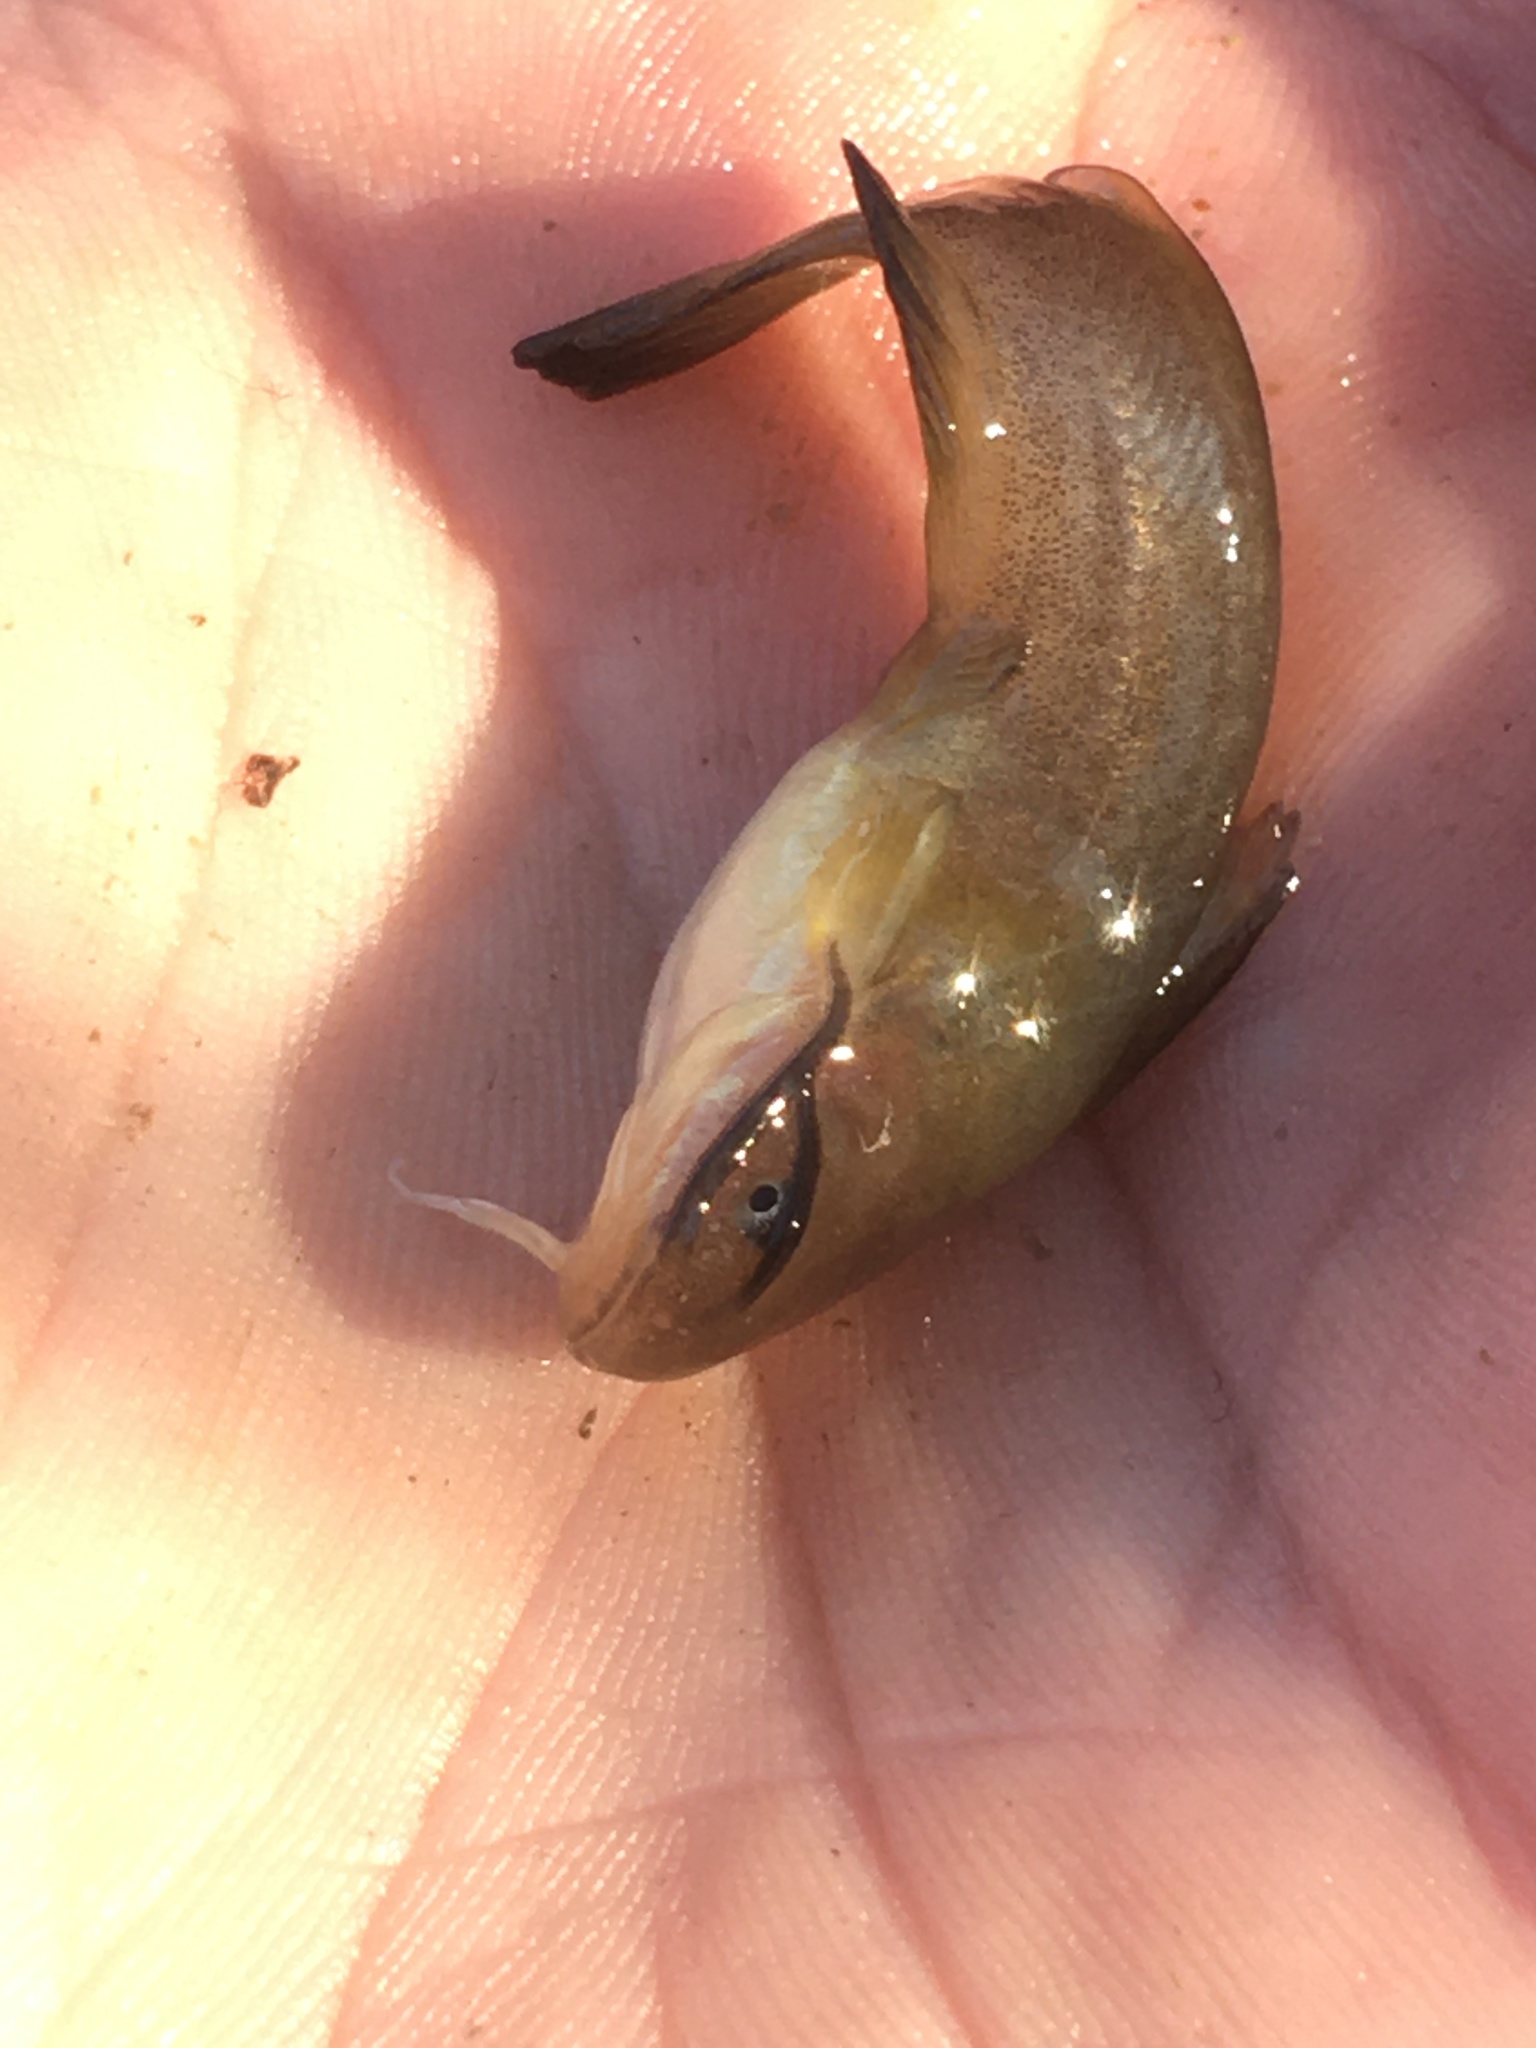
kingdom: Animalia
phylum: Chordata
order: Siluriformes
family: Ictaluridae
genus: Ameiurus
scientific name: Ameiurus natalis
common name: Yellow bullhead
